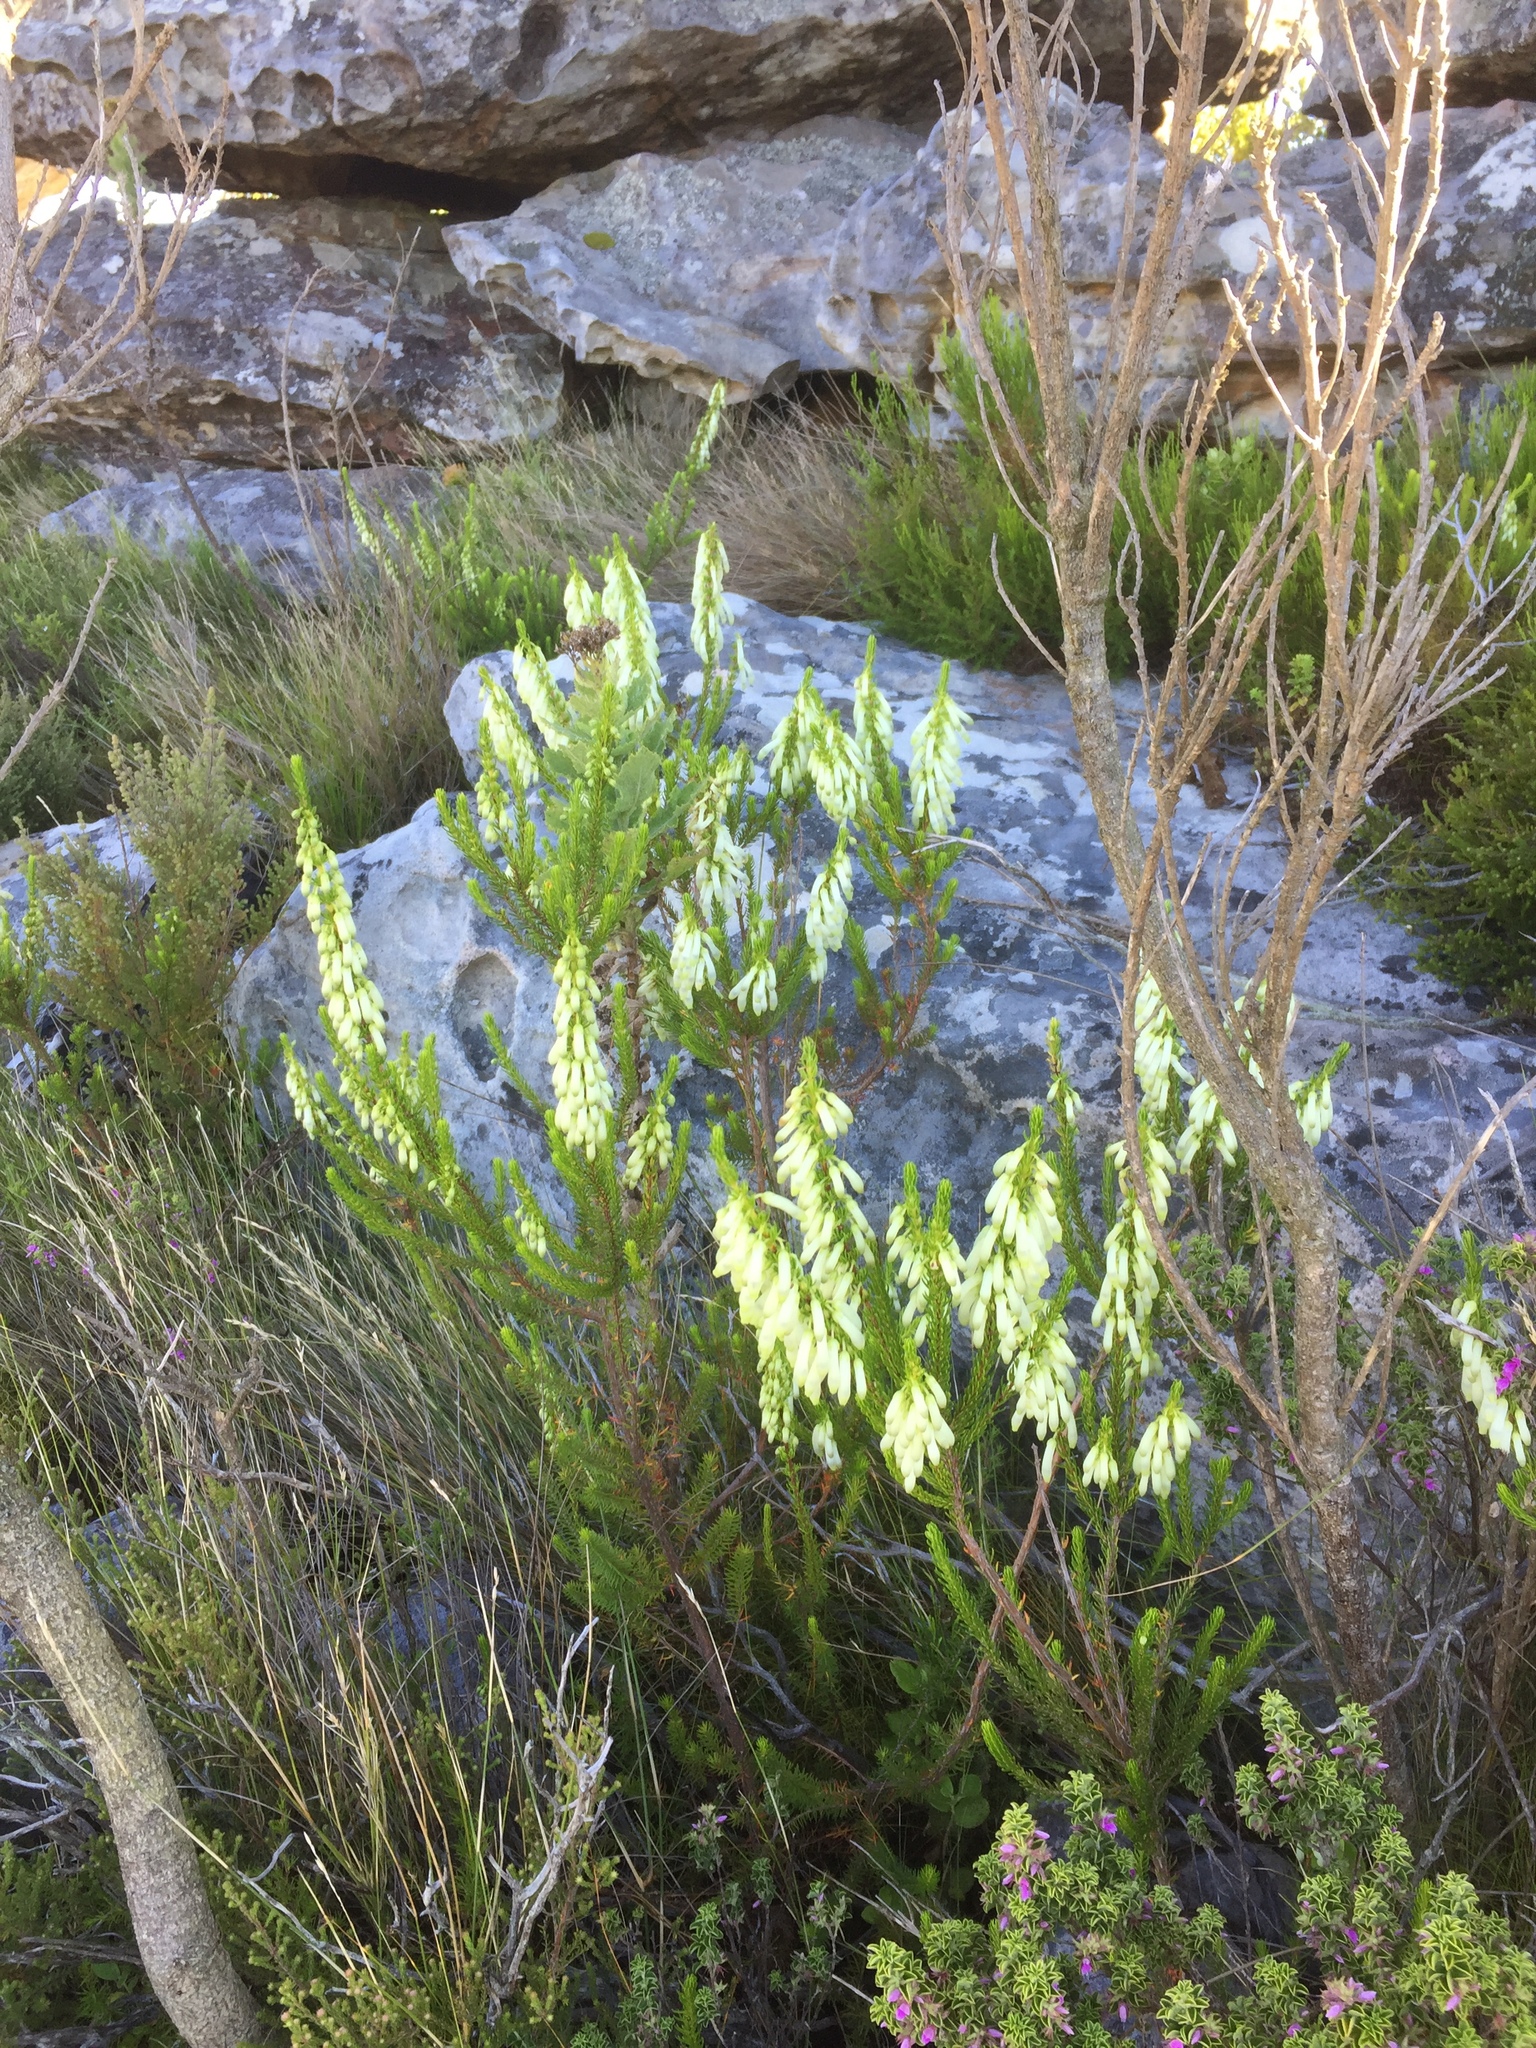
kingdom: Plantae
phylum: Tracheophyta
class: Magnoliopsida
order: Ericales
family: Ericaceae
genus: Erica
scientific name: Erica mammosa
